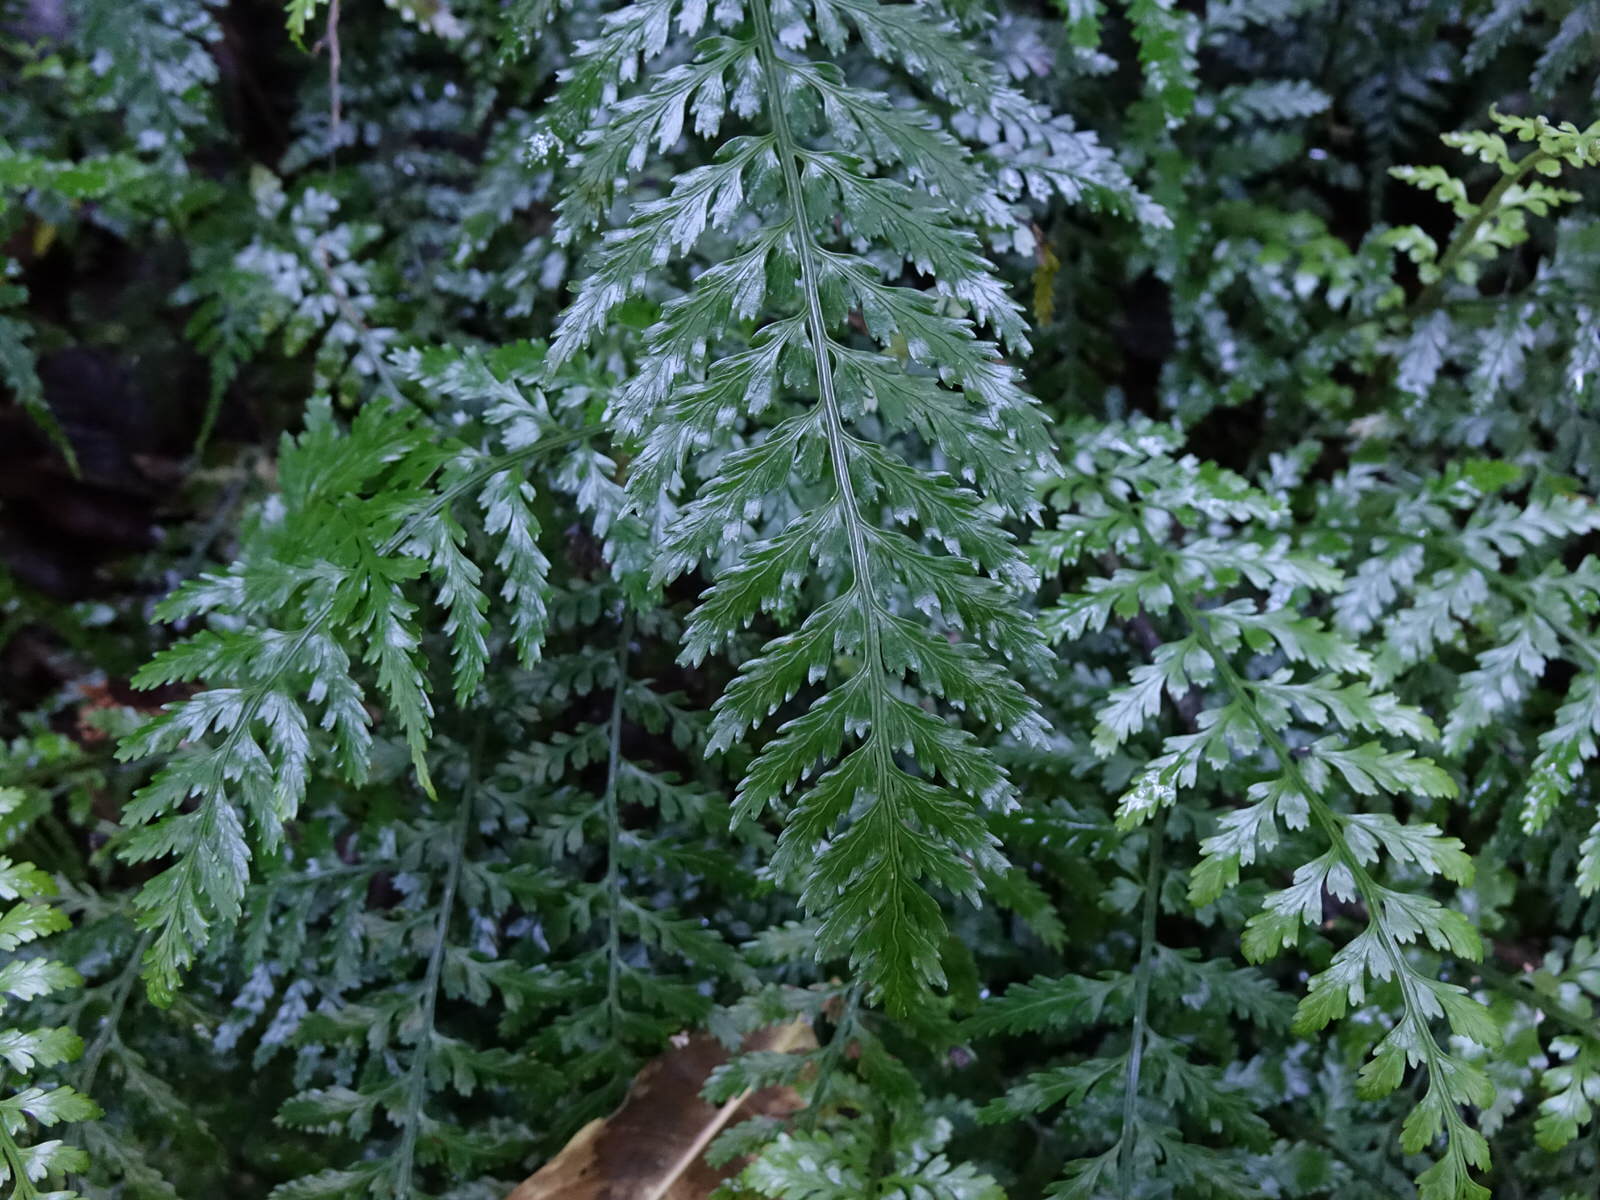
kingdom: Plantae
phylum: Tracheophyta
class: Polypodiopsida
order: Polypodiales
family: Aspleniaceae
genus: Asplenium
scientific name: Asplenium lamprophyllum
